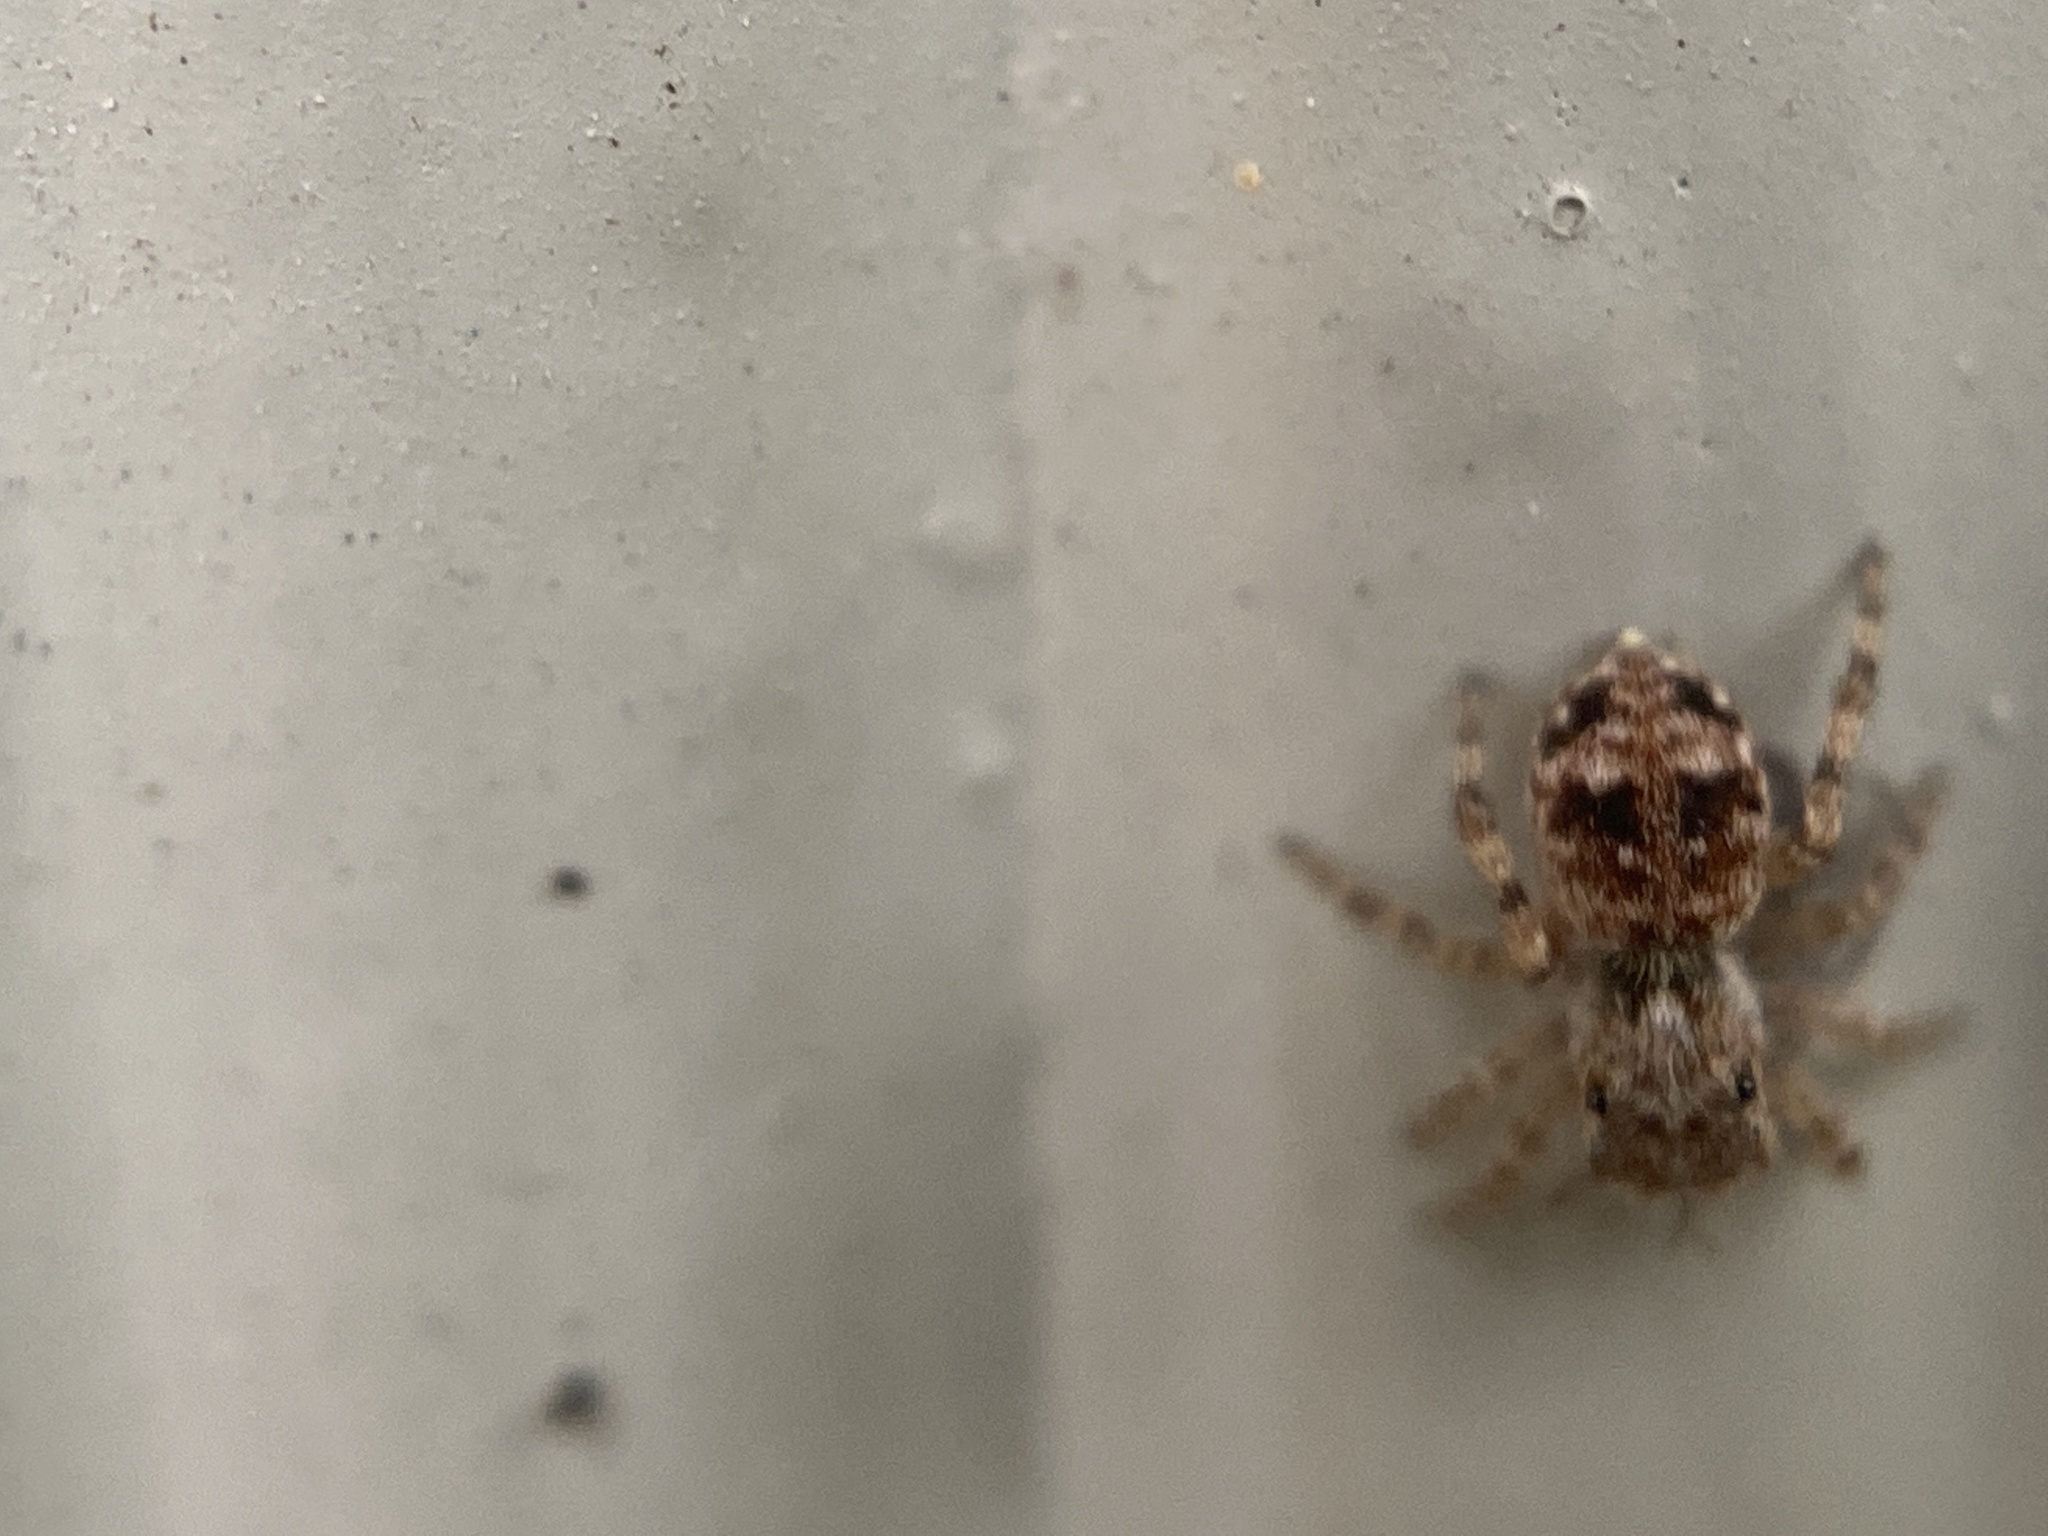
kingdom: Animalia
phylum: Arthropoda
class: Arachnida
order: Araneae
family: Salticidae
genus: Attulus
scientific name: Attulus fasciger
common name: Asiatic wall jumping spider
